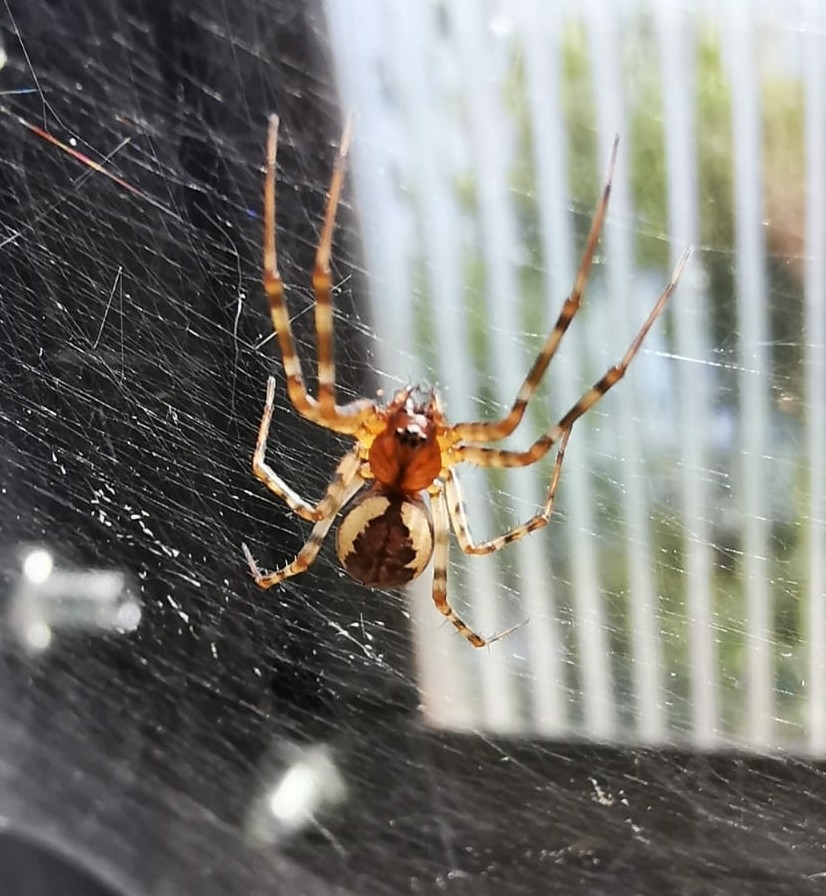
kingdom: Animalia
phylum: Arthropoda
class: Arachnida
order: Araneae
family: Linyphiidae
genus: Neriene
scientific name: Neriene montana
